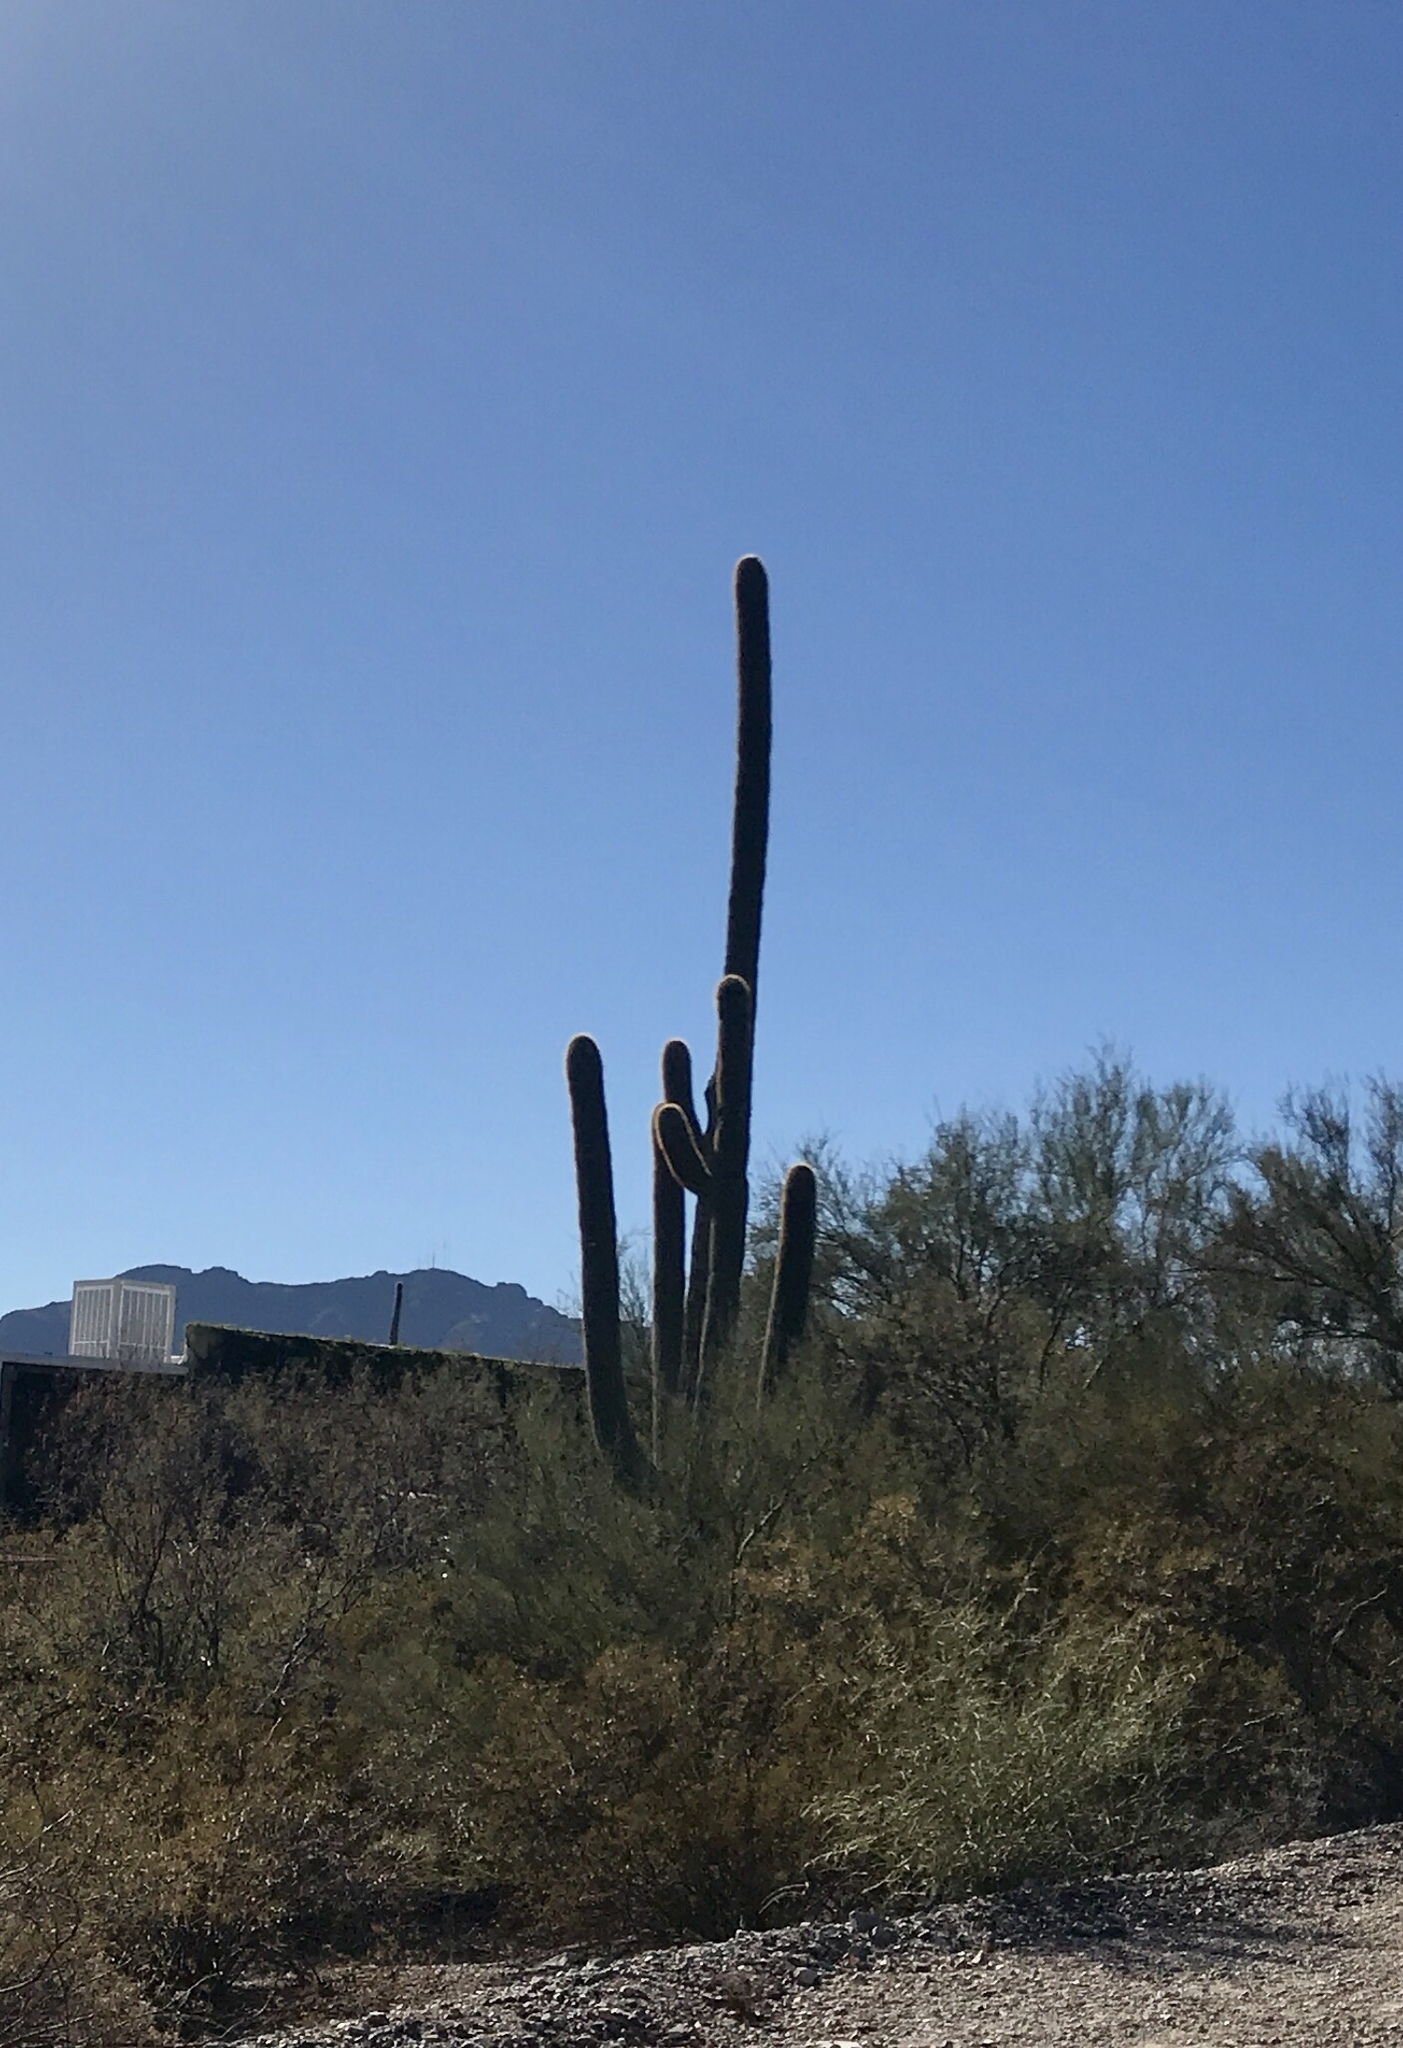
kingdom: Plantae
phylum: Tracheophyta
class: Magnoliopsida
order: Caryophyllales
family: Cactaceae
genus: Carnegiea
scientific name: Carnegiea gigantea
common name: Saguaro
